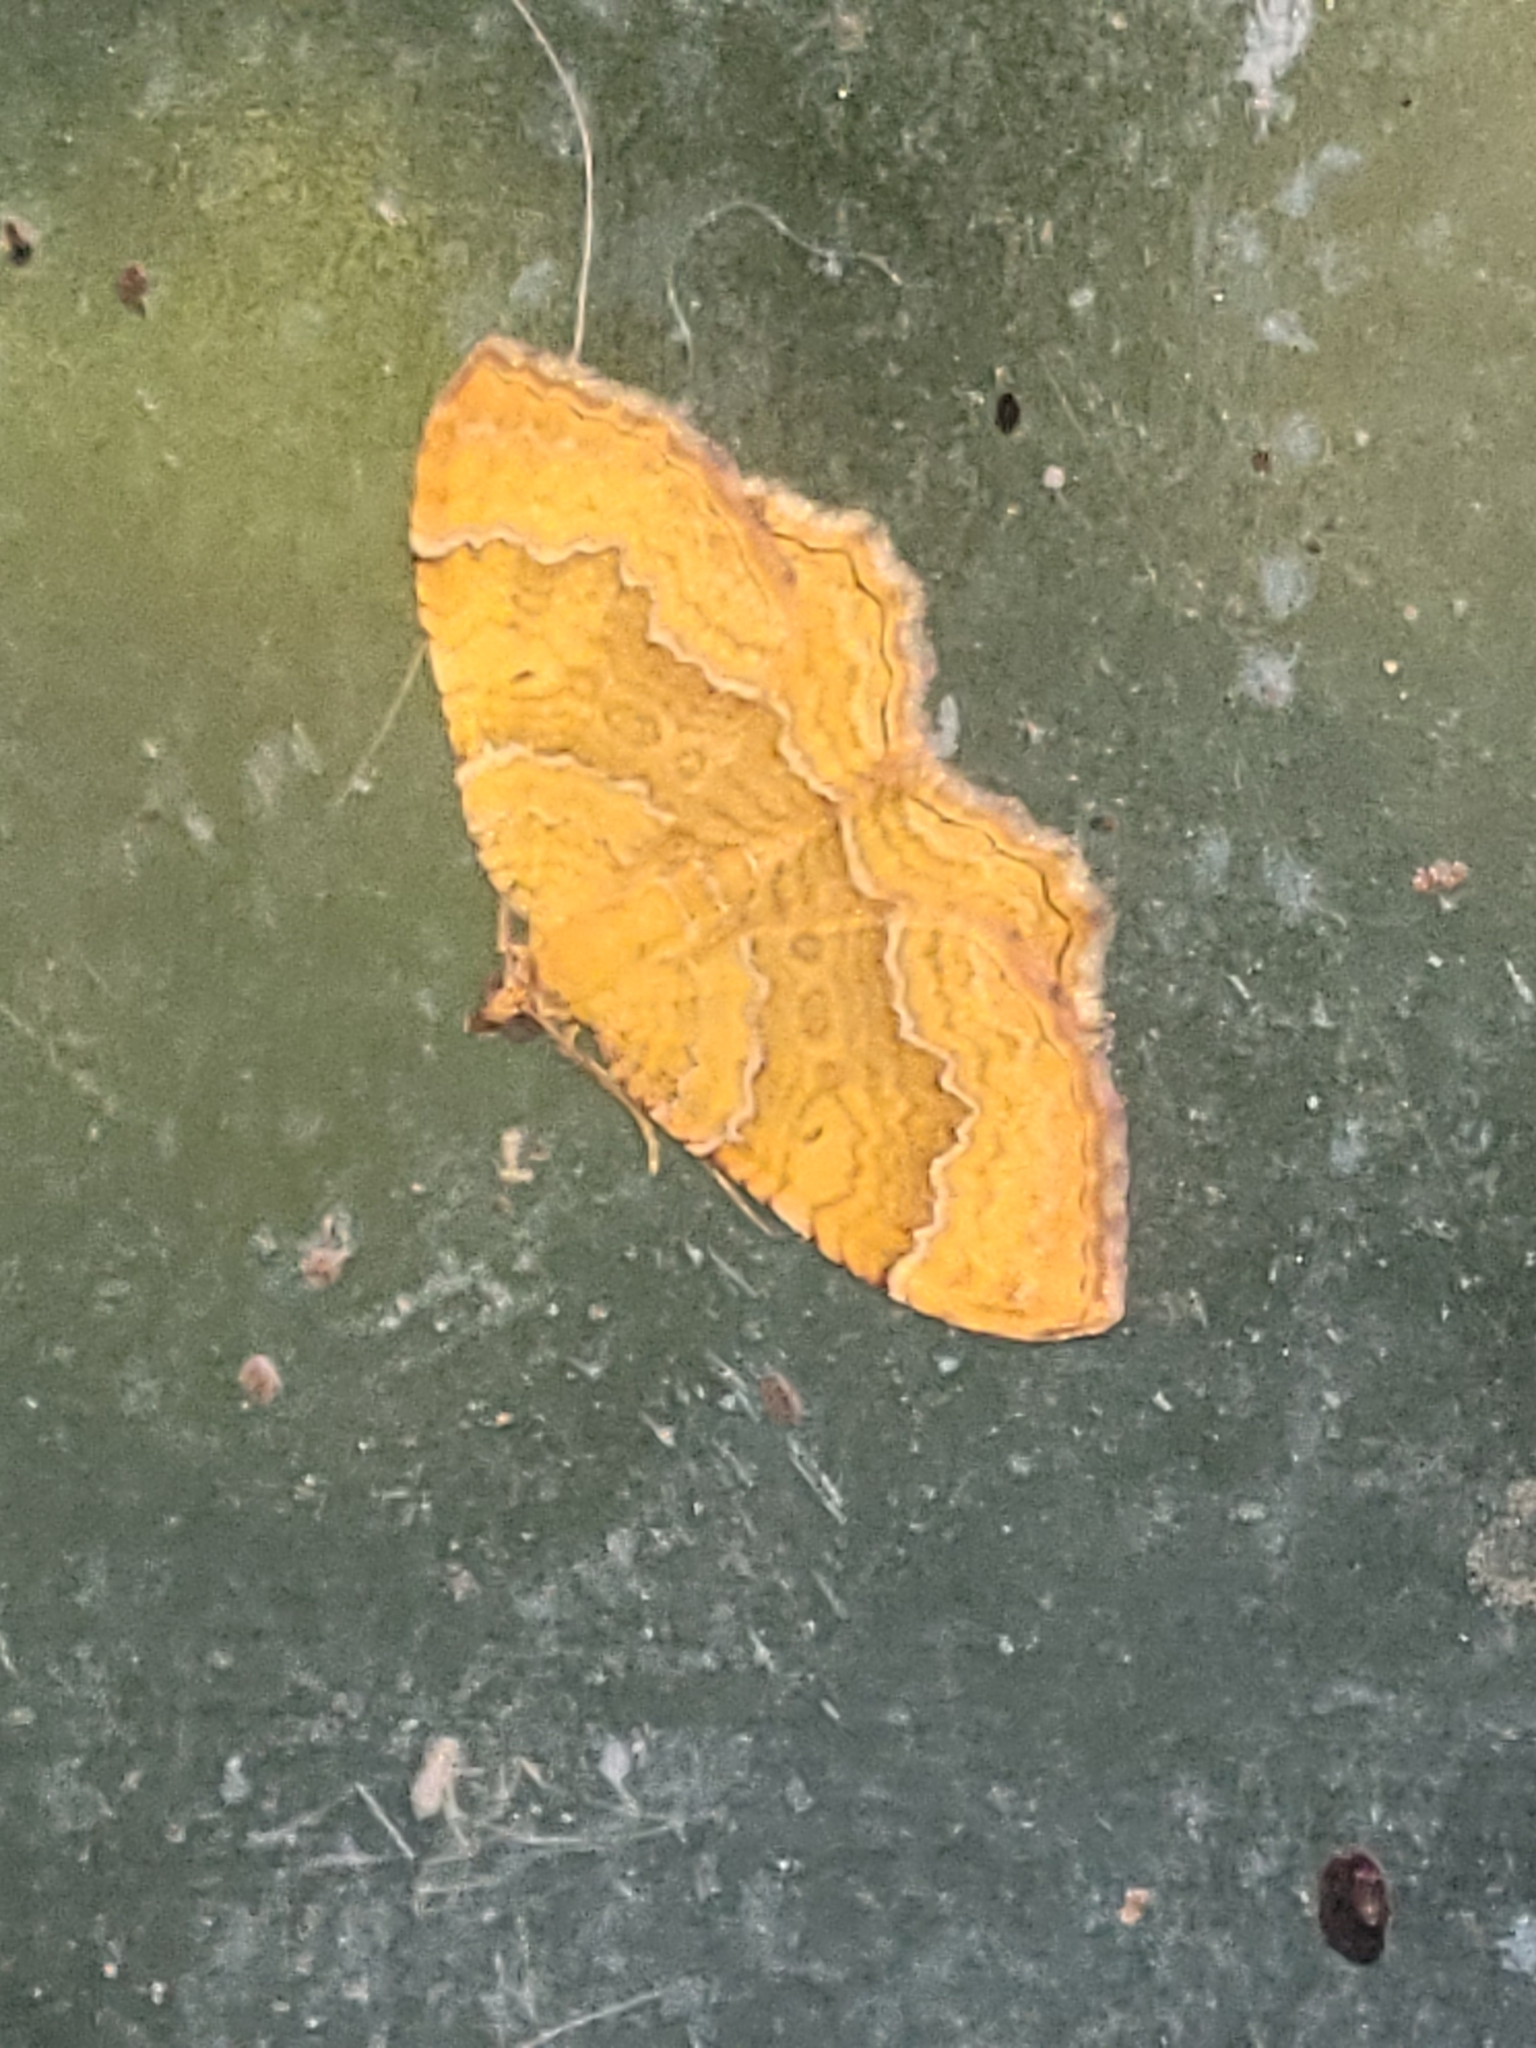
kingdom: Animalia
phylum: Arthropoda
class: Insecta
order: Lepidoptera
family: Geometridae
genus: Camptogramma
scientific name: Camptogramma bilineata
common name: Yellow shell
